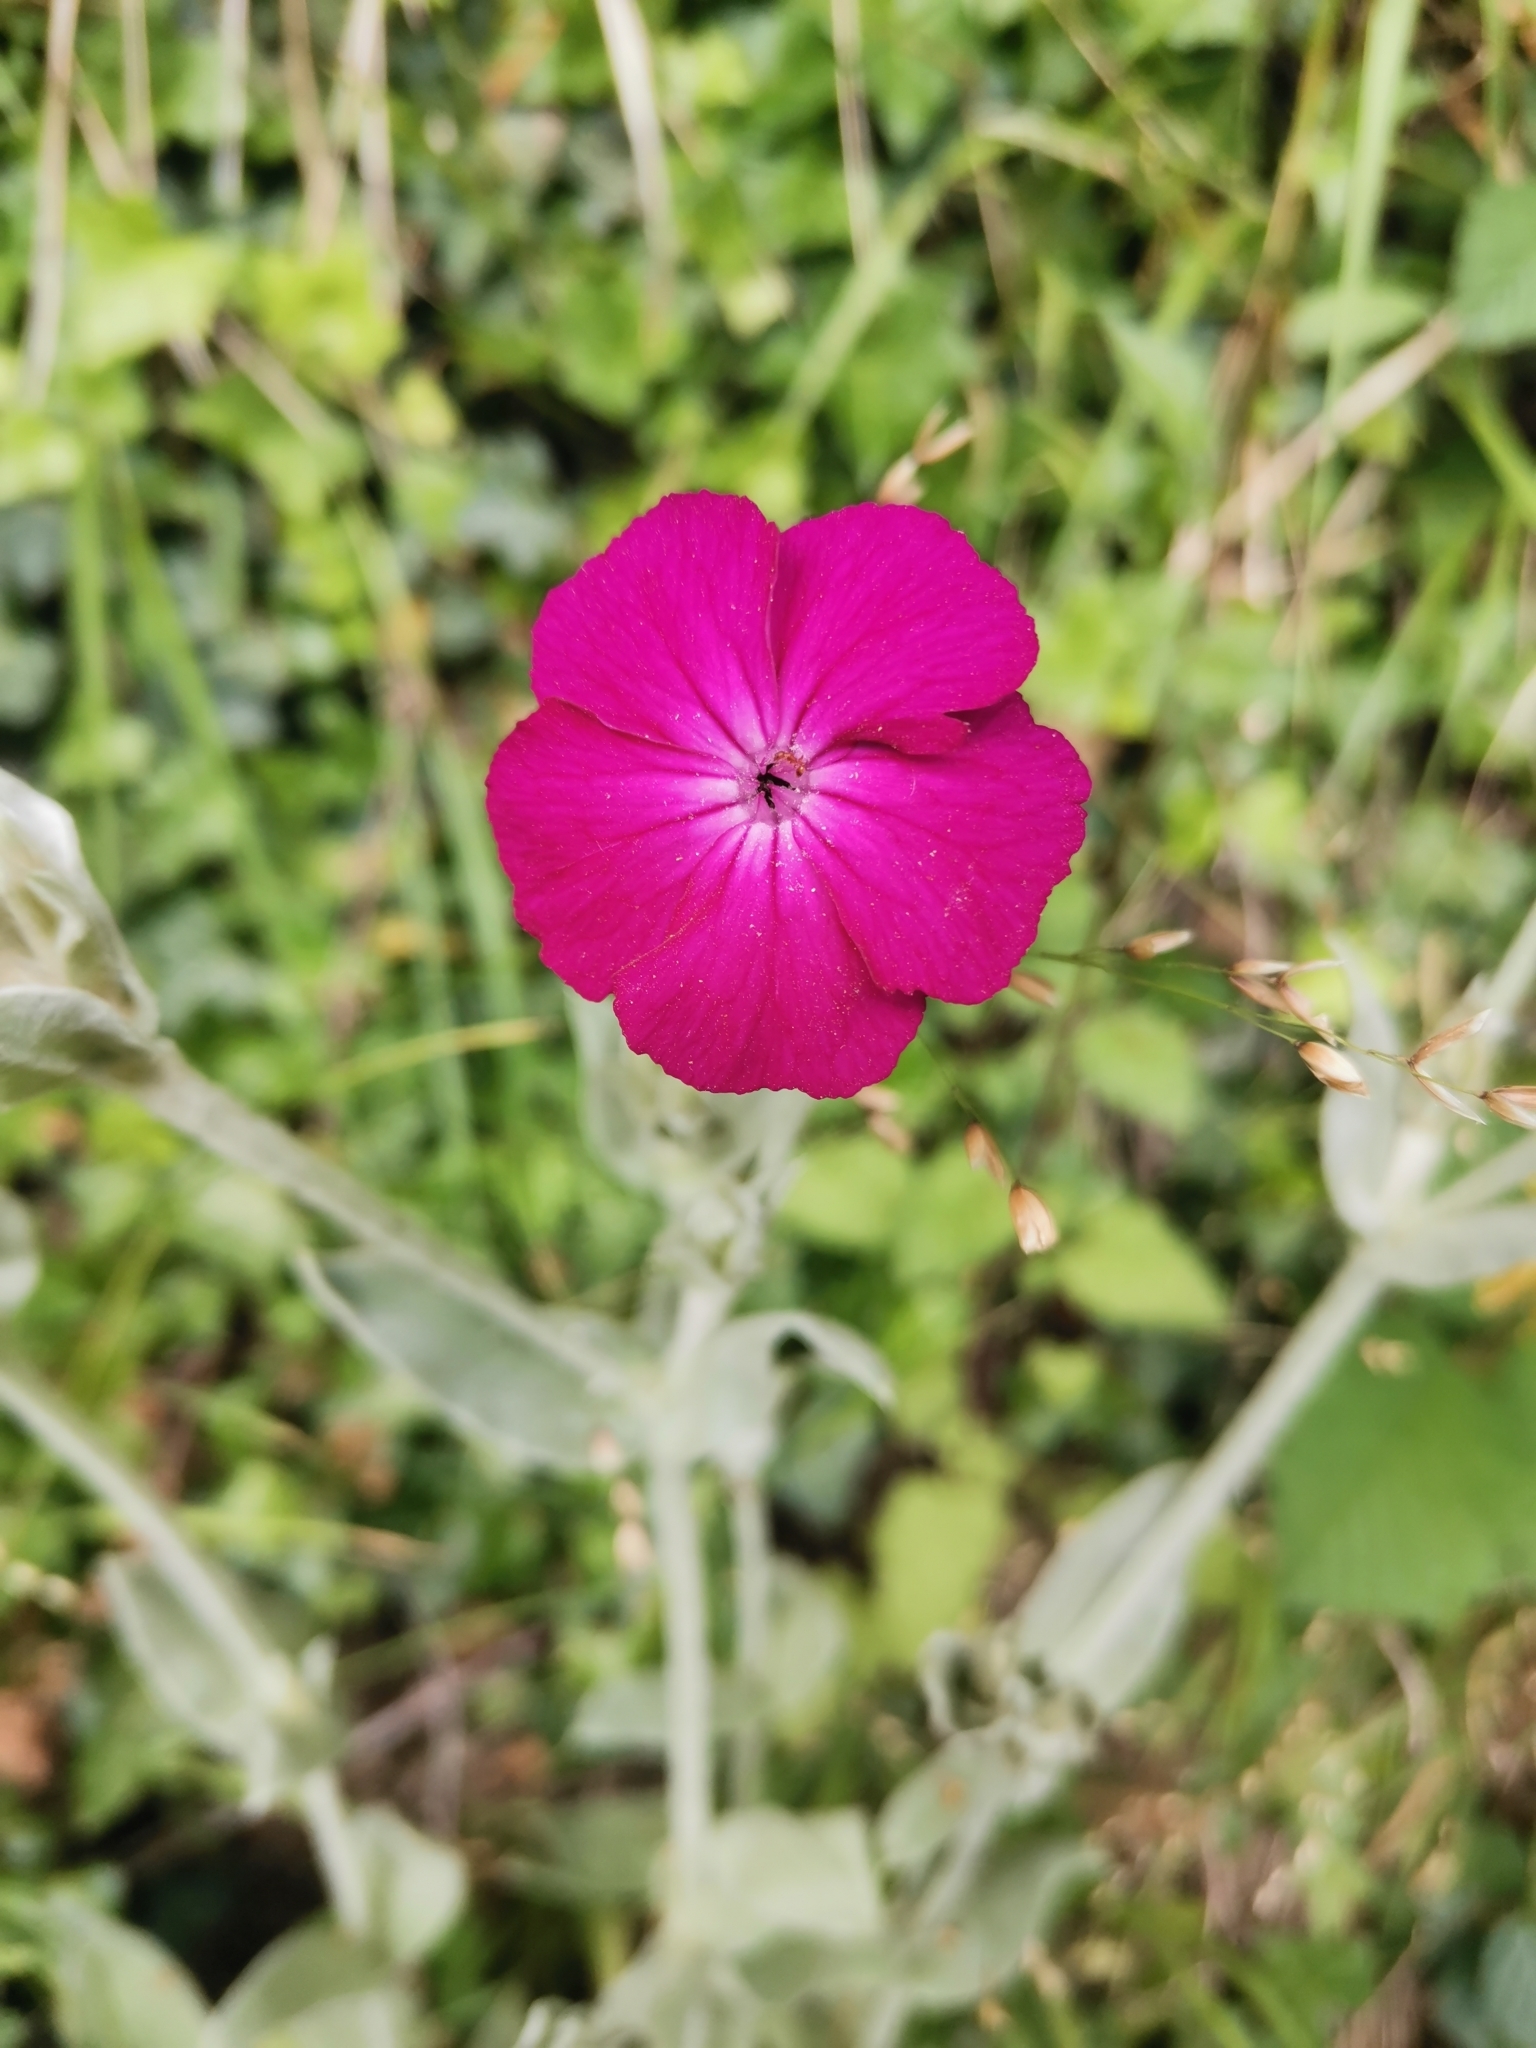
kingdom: Plantae
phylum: Tracheophyta
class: Magnoliopsida
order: Caryophyllales
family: Caryophyllaceae
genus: Silene
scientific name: Silene coronaria
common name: Rose campion
